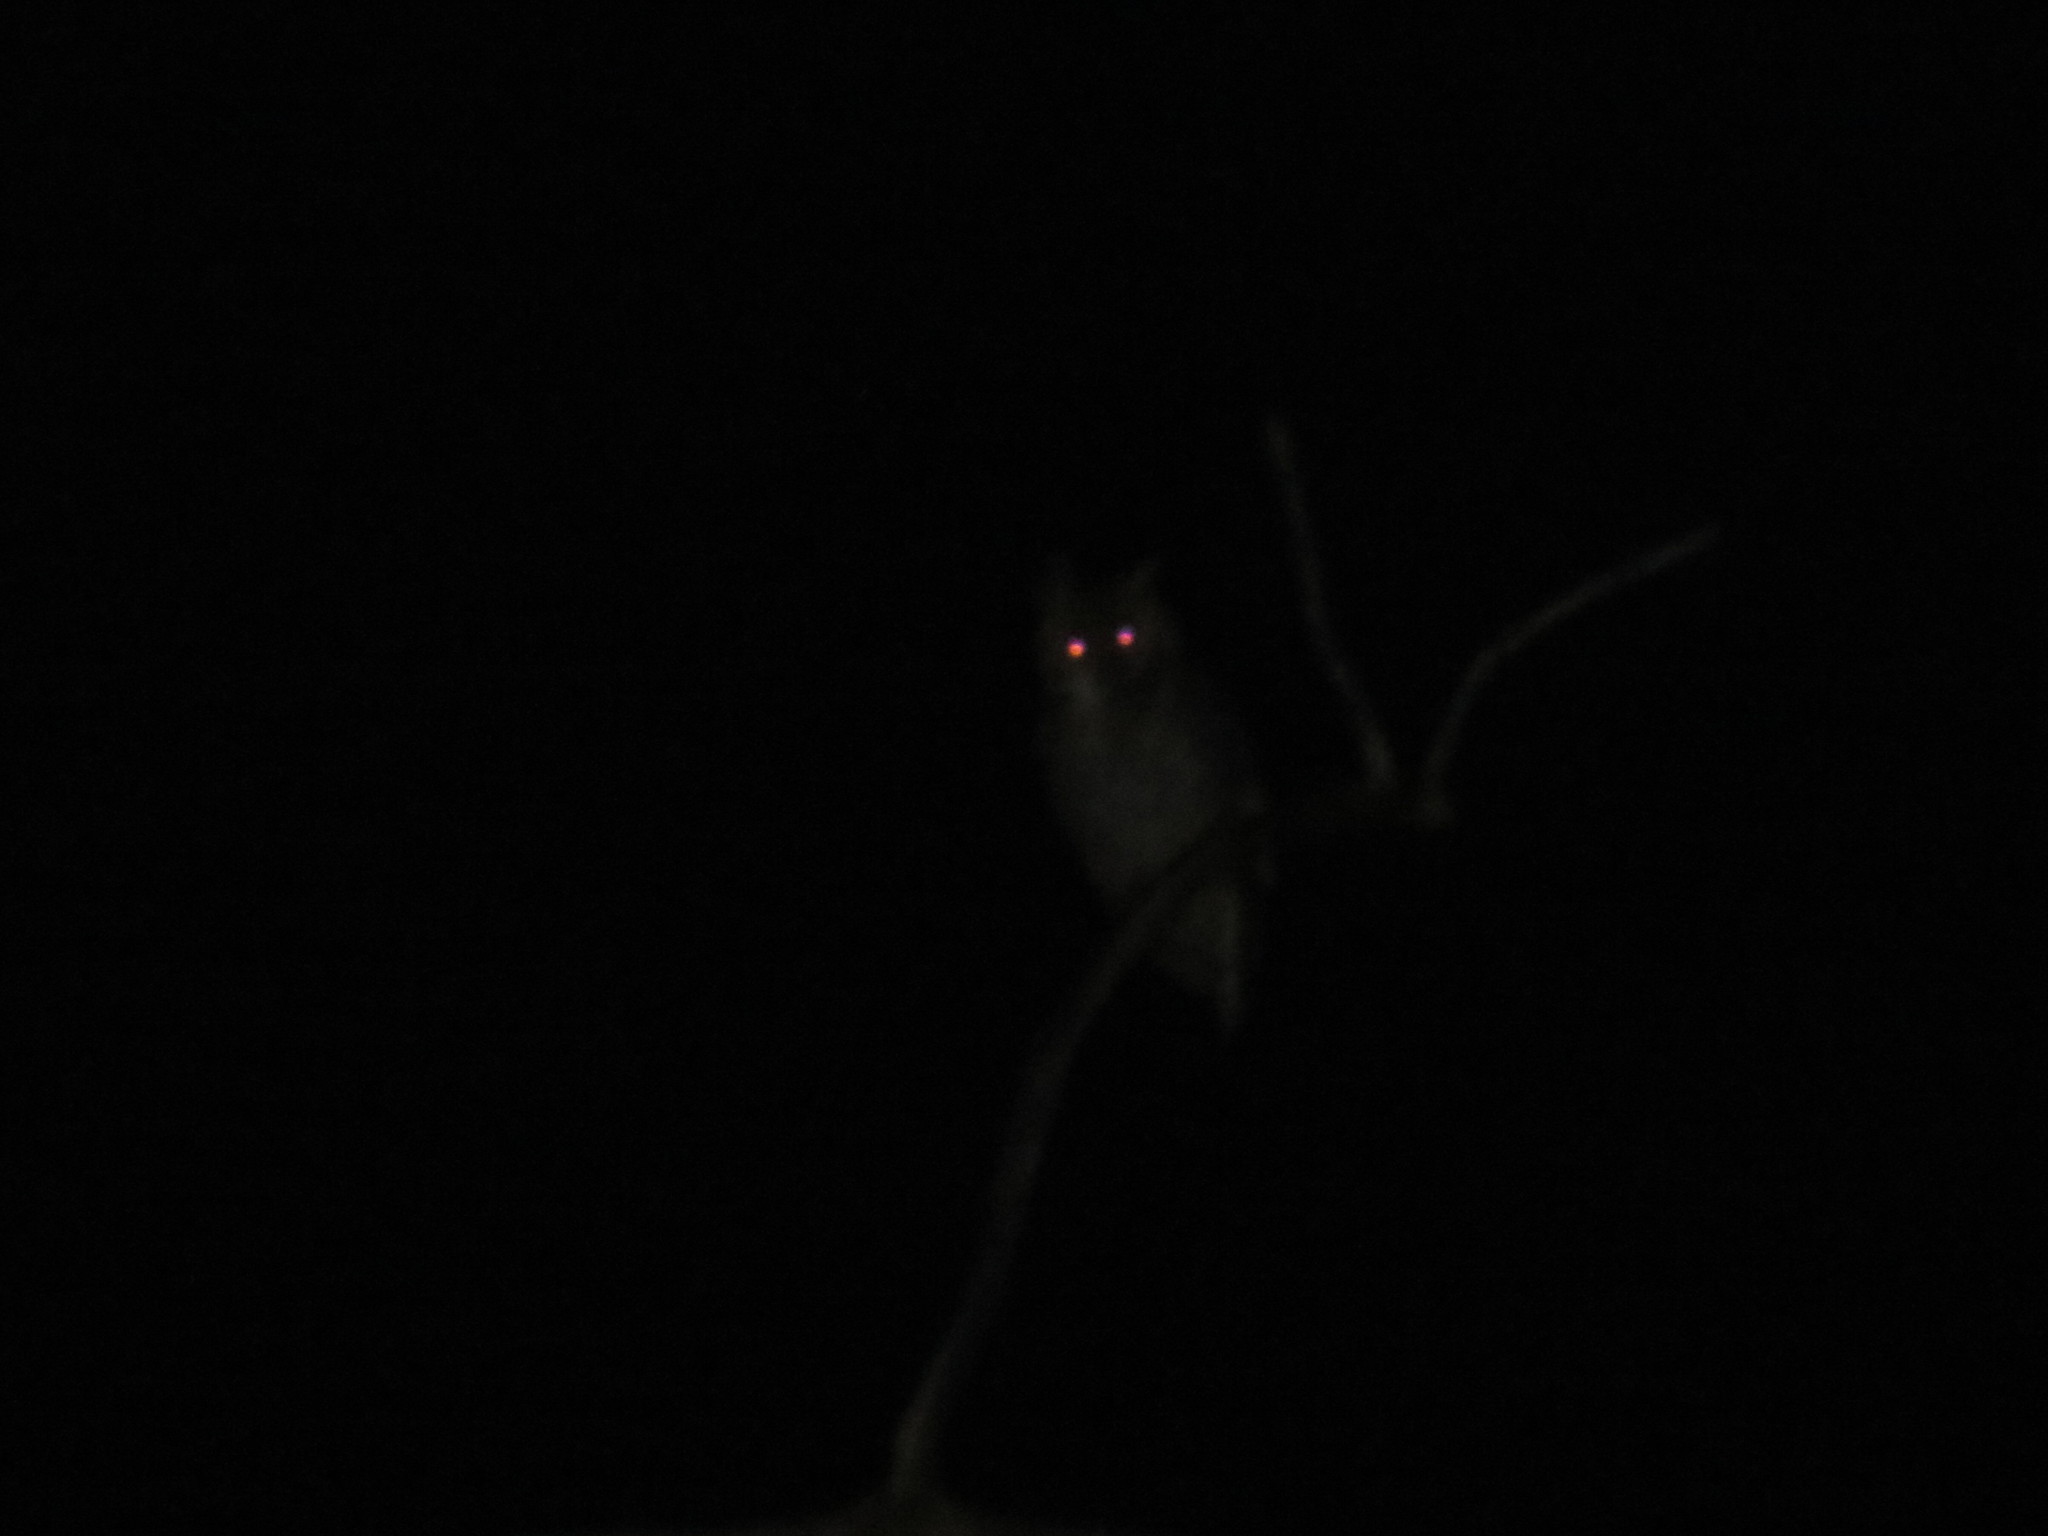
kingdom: Animalia
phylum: Chordata
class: Aves
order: Strigiformes
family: Strigidae
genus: Bubo
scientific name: Bubo virginianus
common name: Great horned owl
